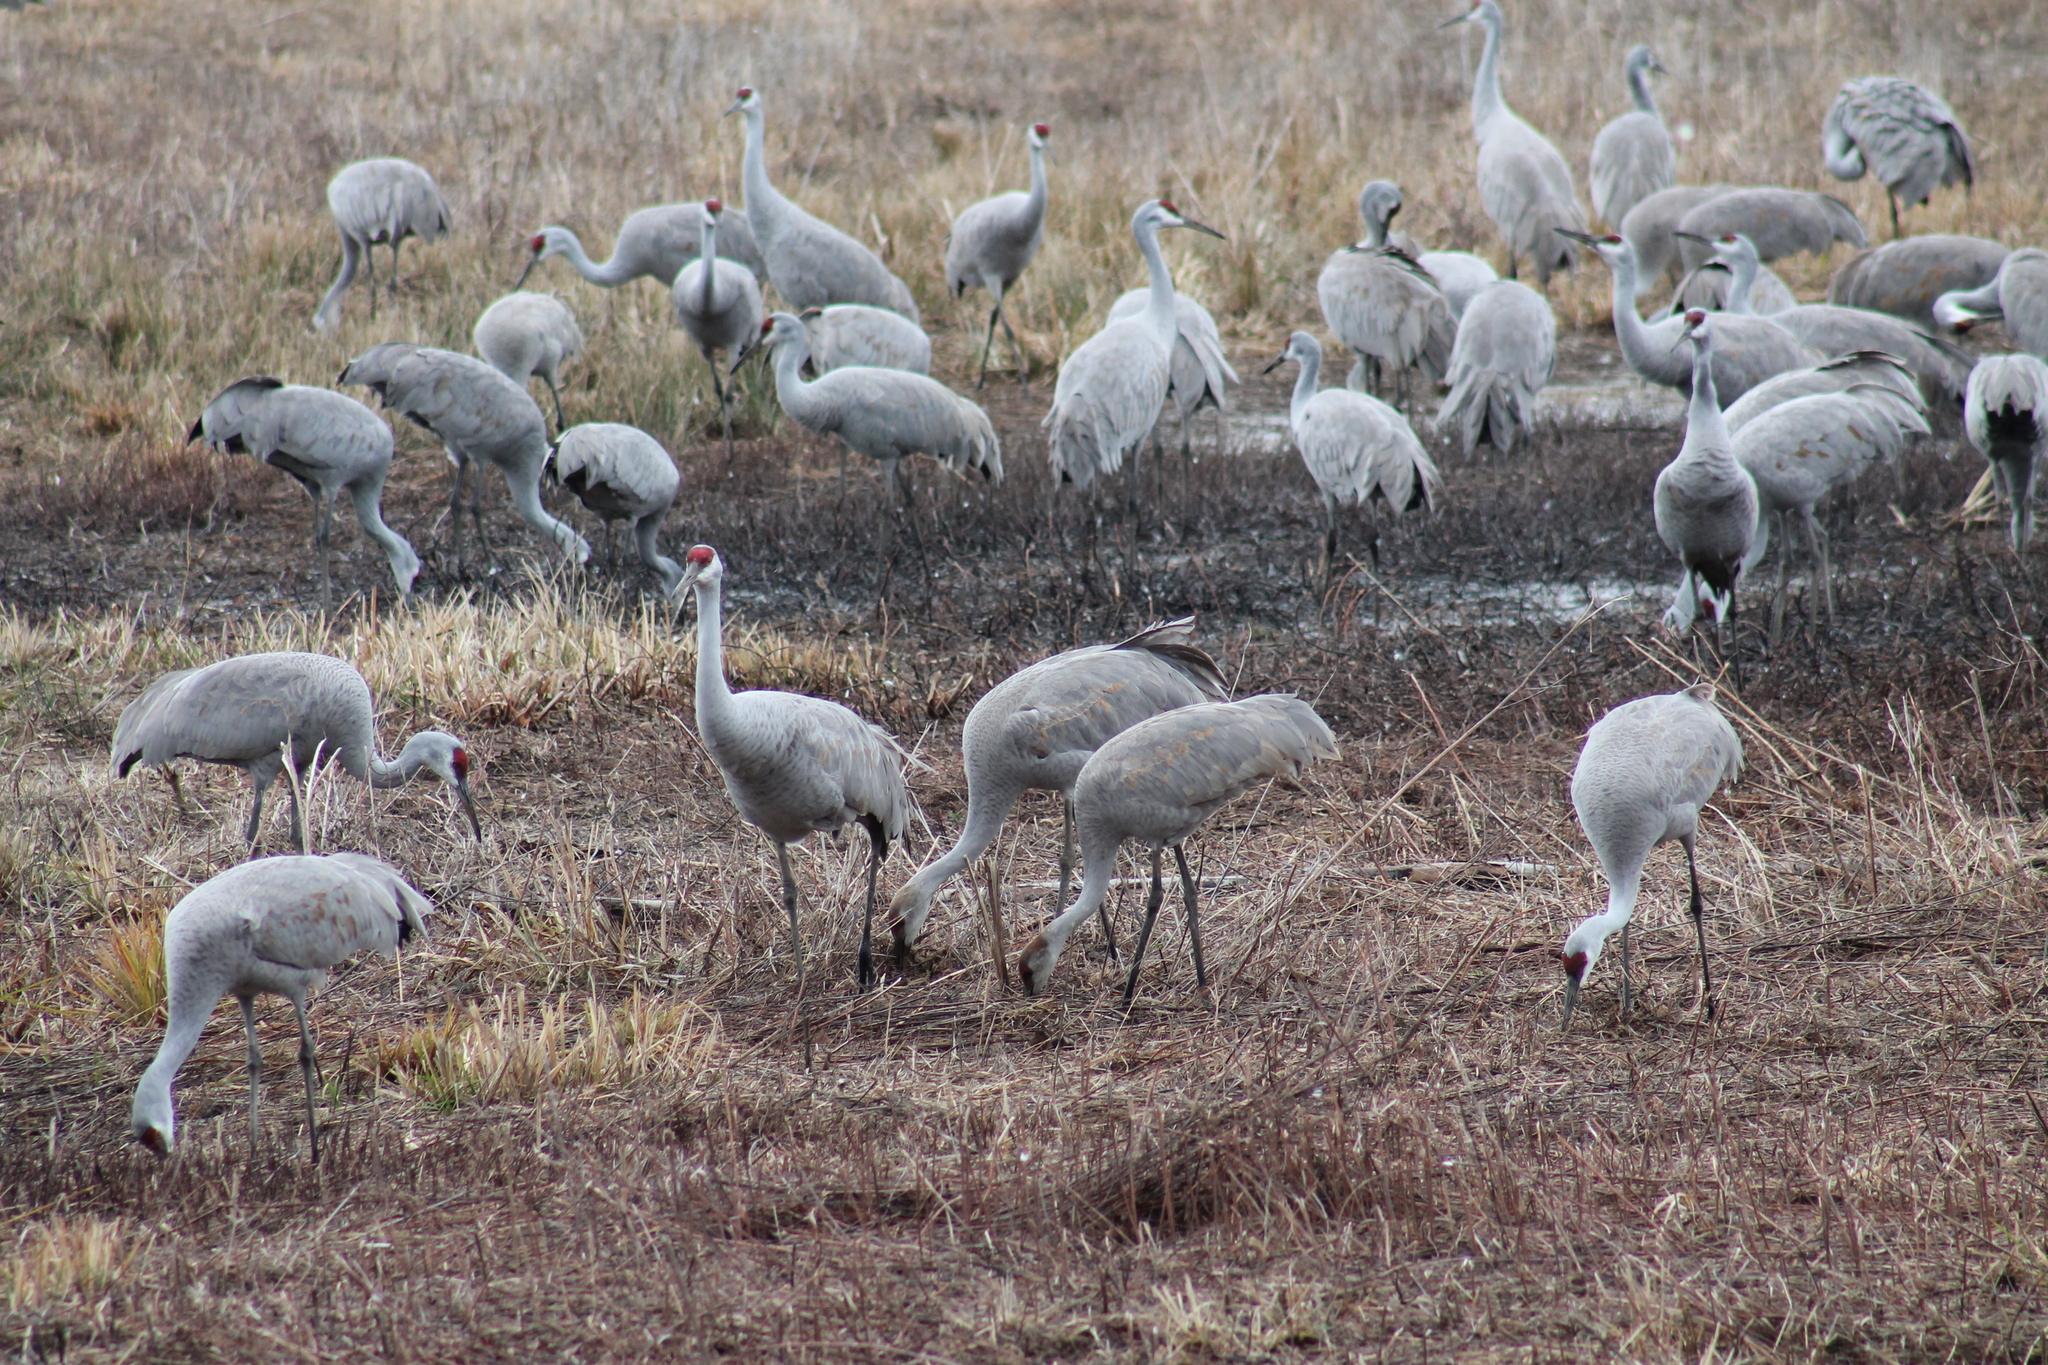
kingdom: Animalia
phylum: Chordata
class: Aves
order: Gruiformes
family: Gruidae
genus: Grus
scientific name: Grus canadensis
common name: Sandhill crane
